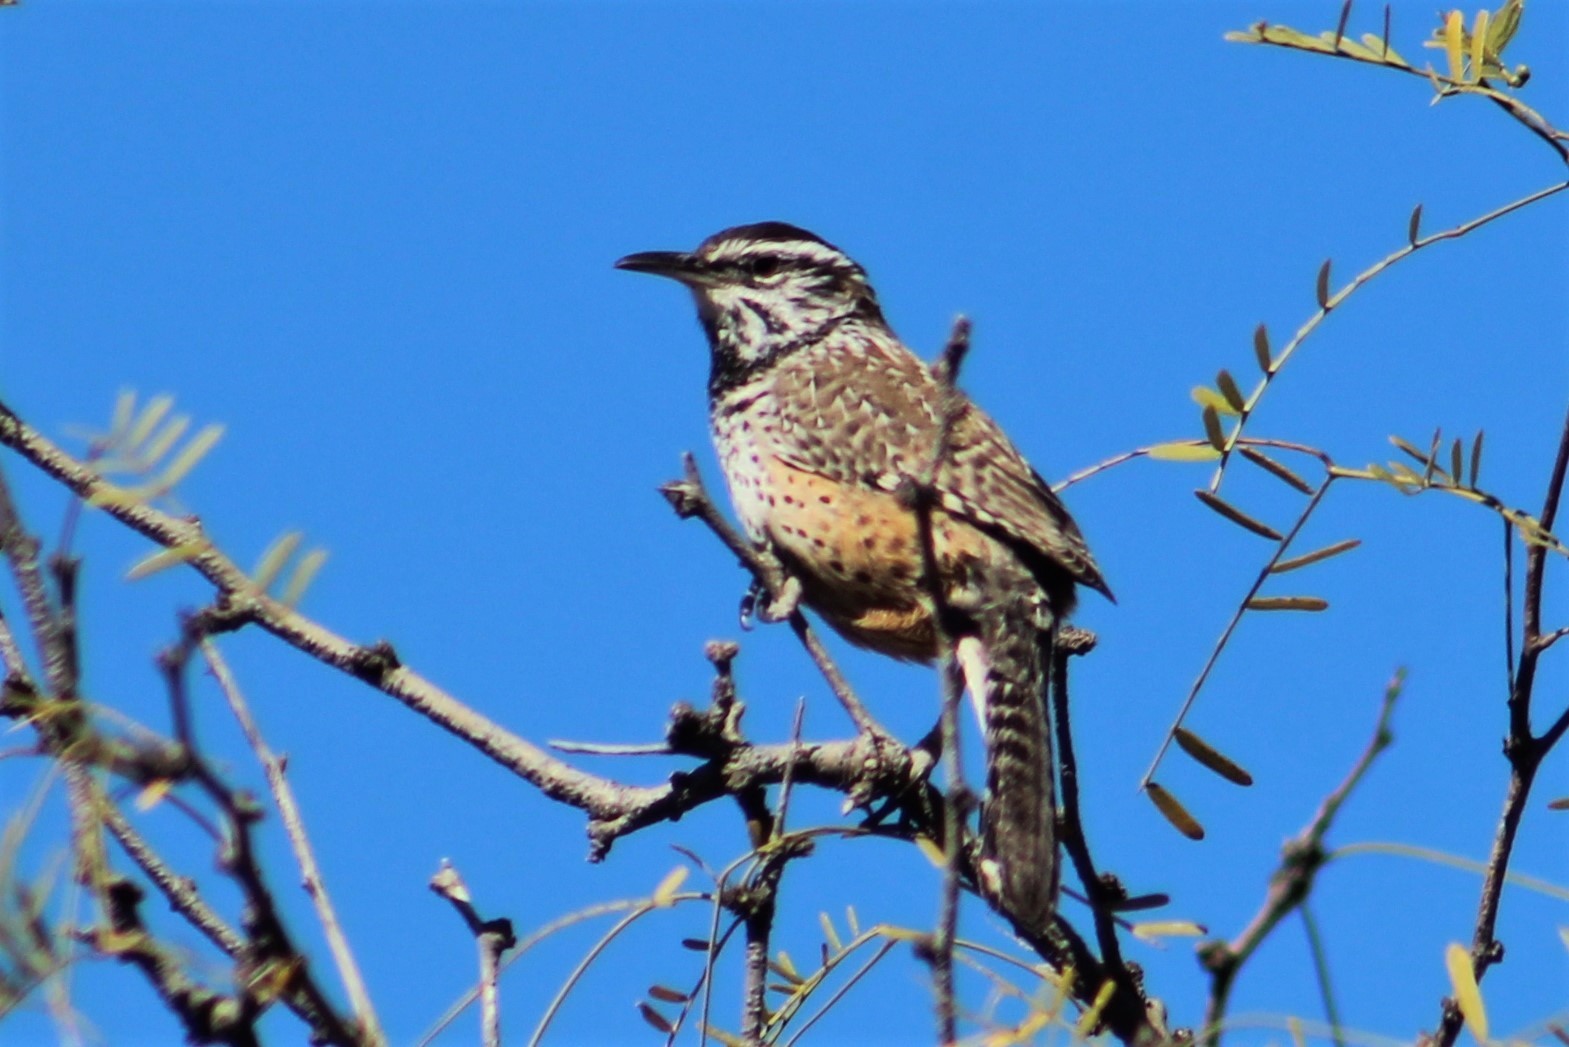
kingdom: Animalia
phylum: Chordata
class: Aves
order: Passeriformes
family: Troglodytidae
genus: Campylorhynchus
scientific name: Campylorhynchus brunneicapillus
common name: Cactus wren
